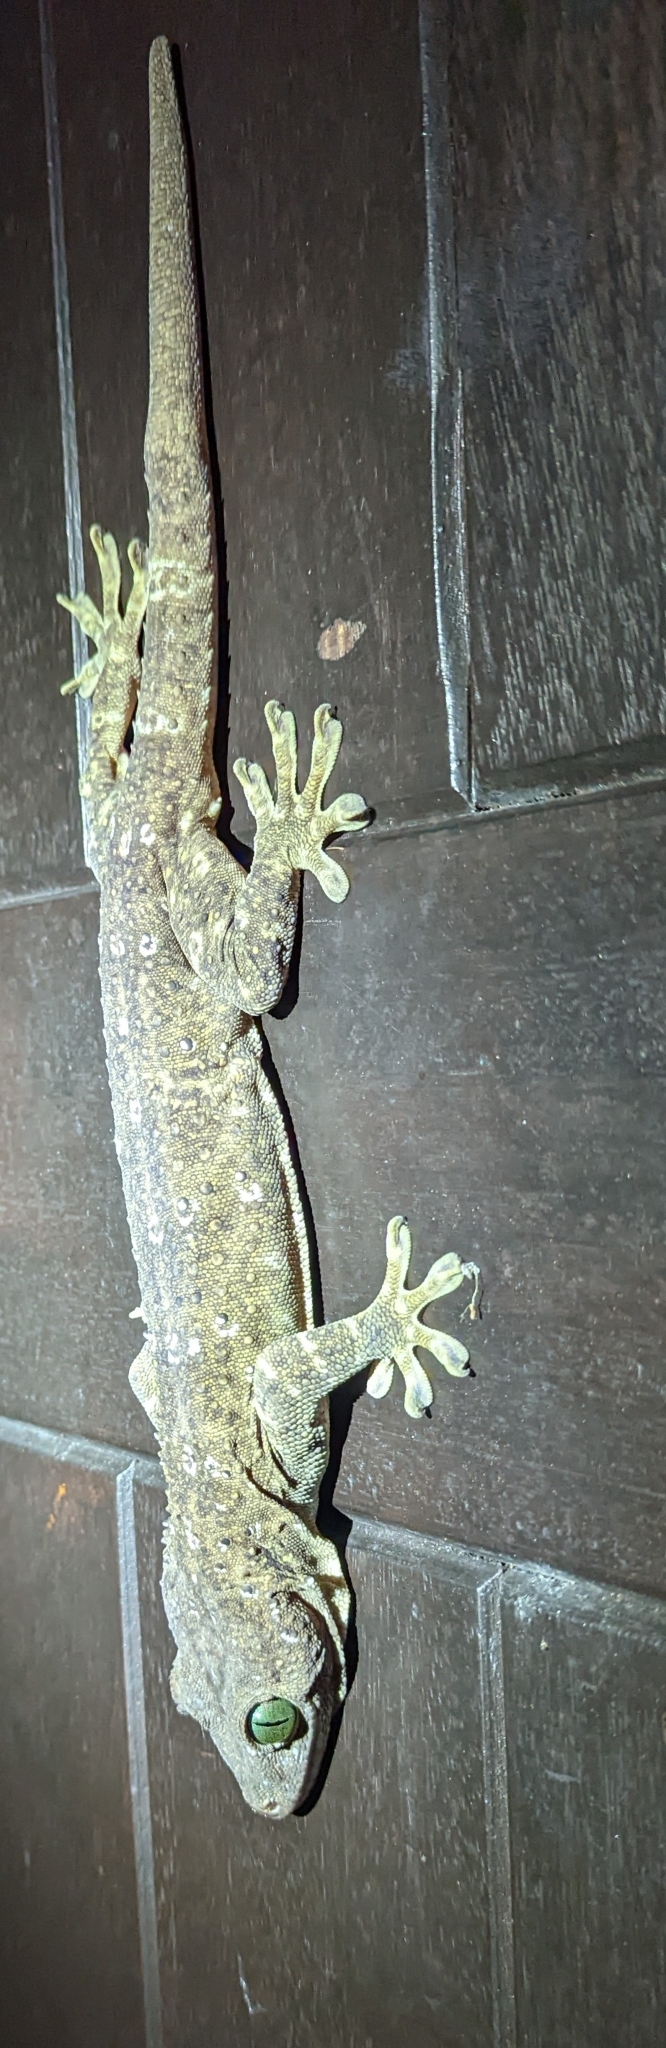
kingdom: Animalia
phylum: Chordata
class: Squamata
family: Gekkonidae
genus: Gekko
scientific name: Gekko albofasciolatus
